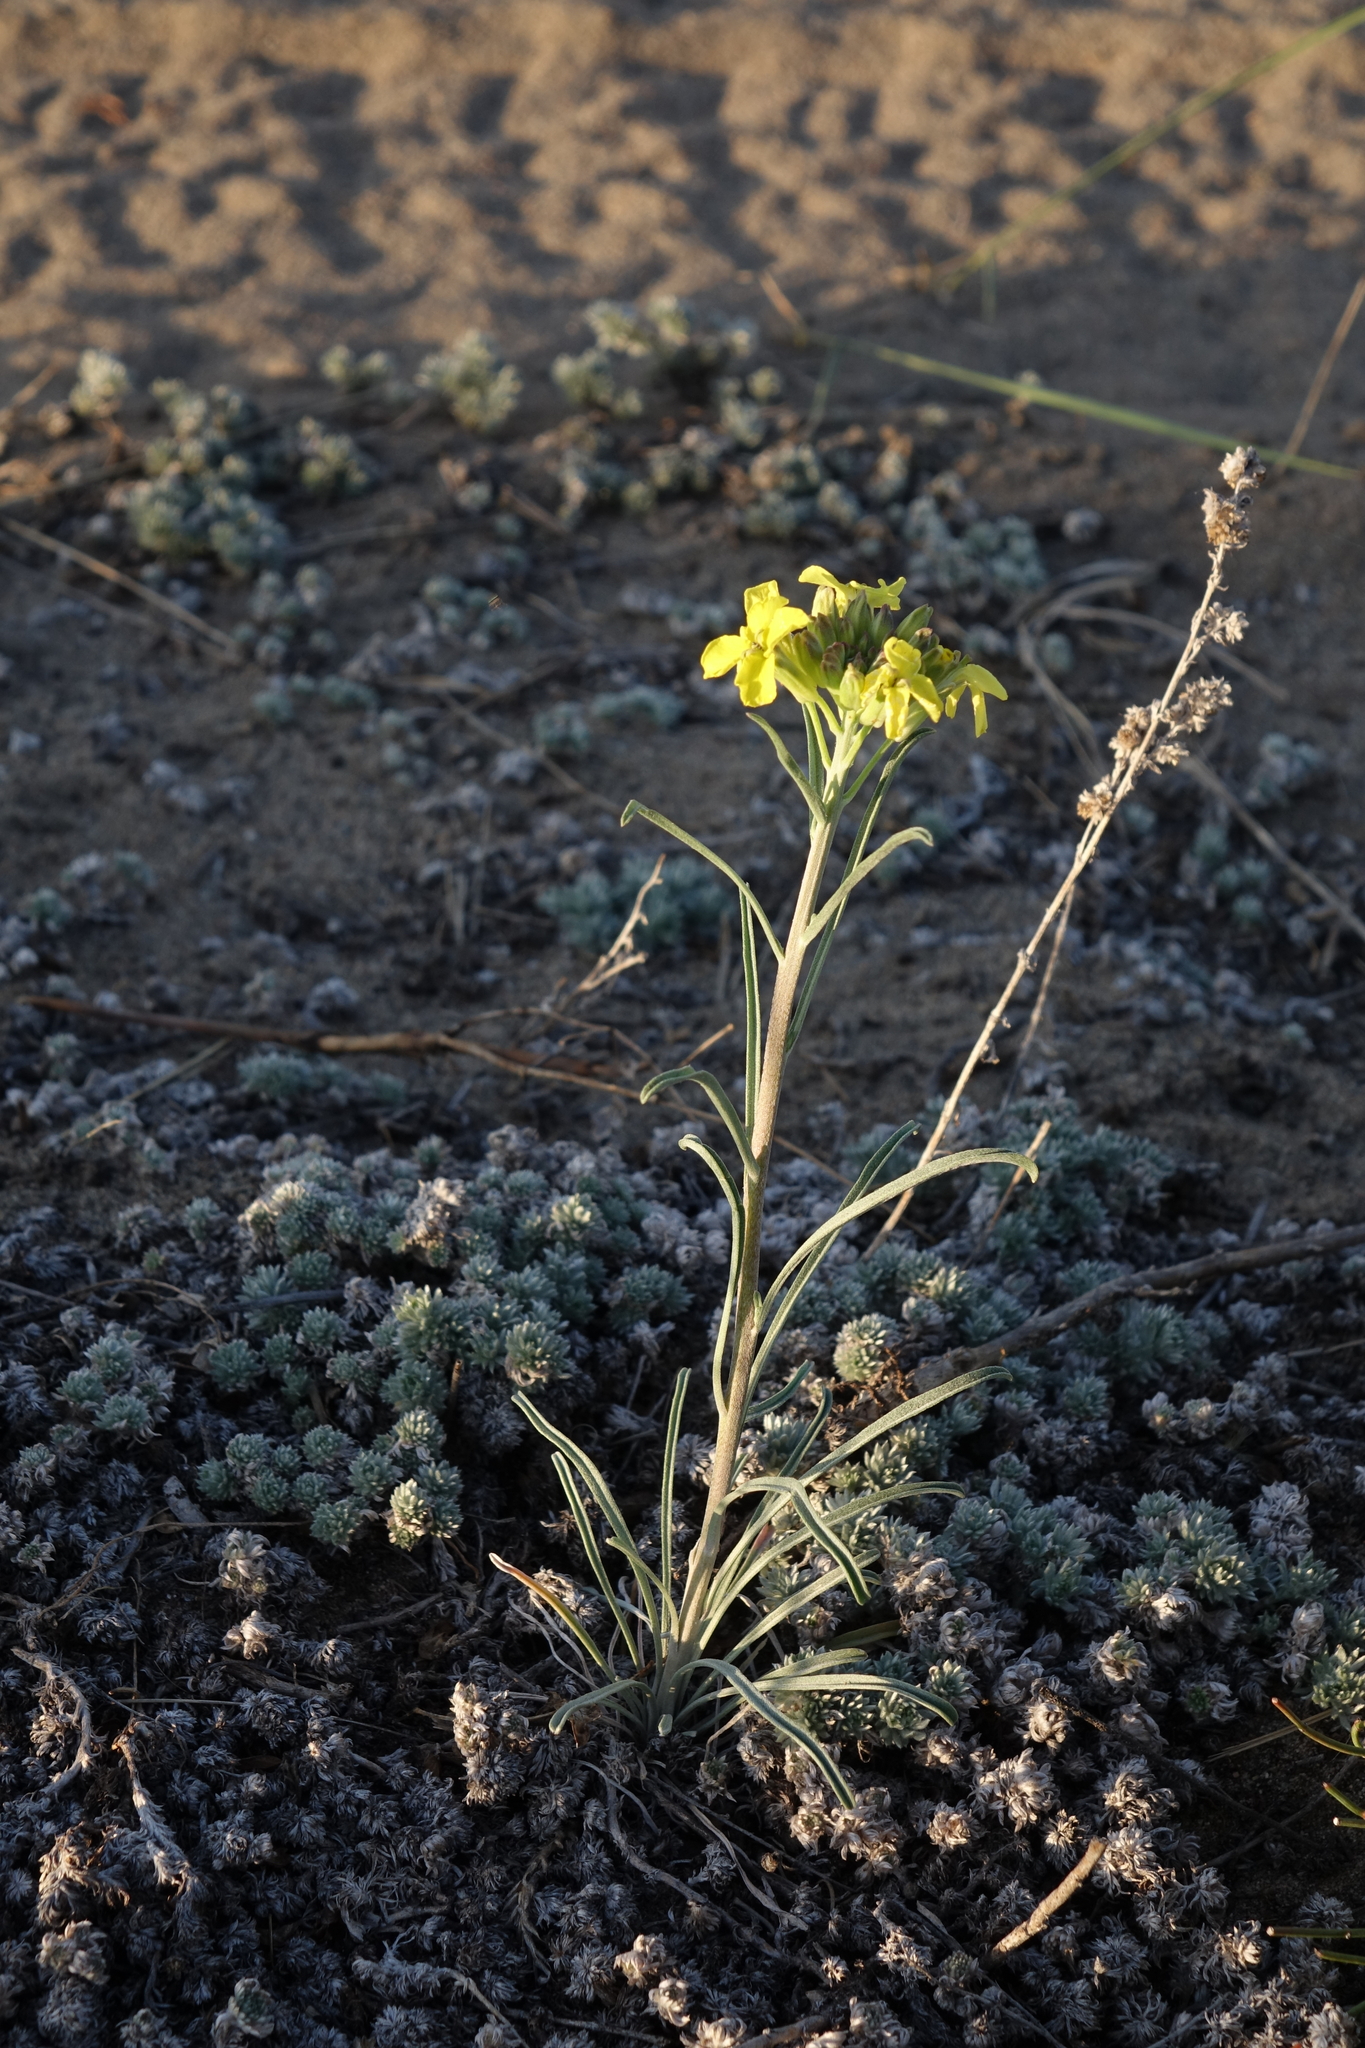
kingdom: Plantae
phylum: Tracheophyta
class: Magnoliopsida
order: Brassicales
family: Brassicaceae
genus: Erysimum
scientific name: Erysimum flavum
